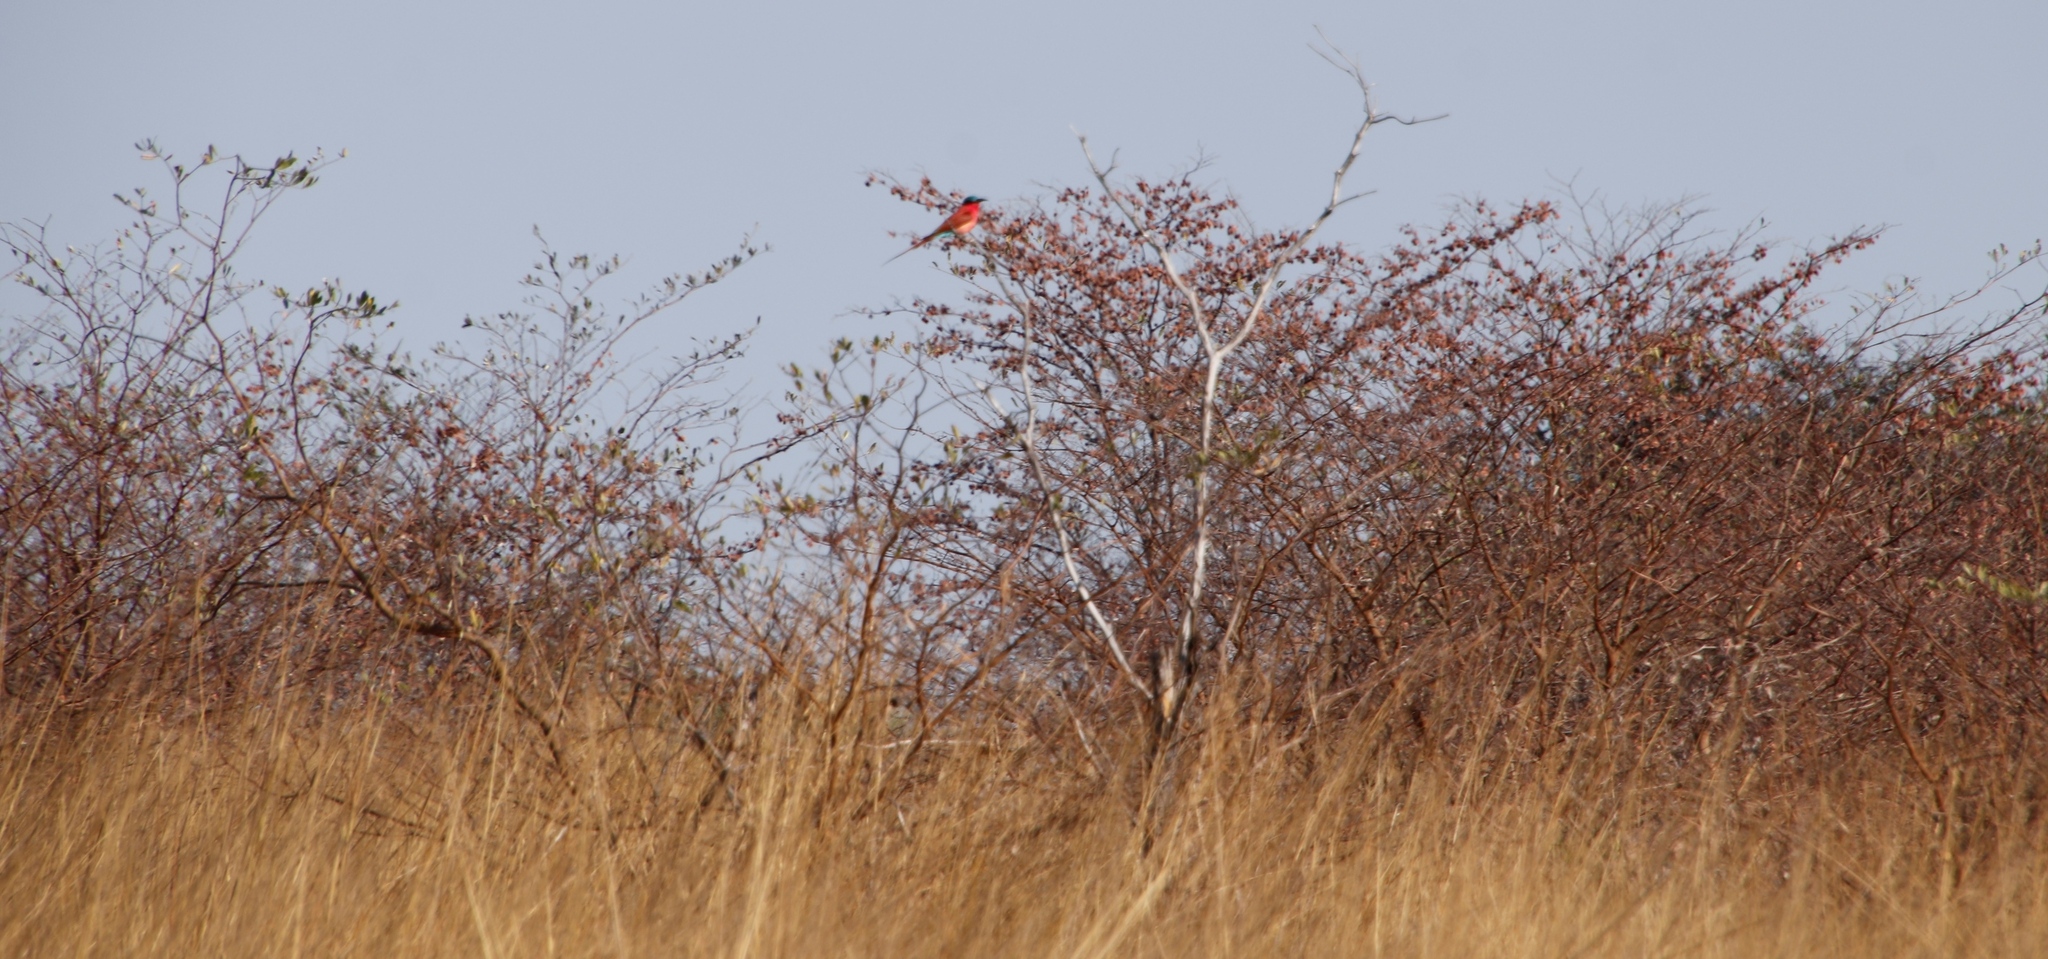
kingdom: Plantae
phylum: Tracheophyta
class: Magnoliopsida
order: Myrtales
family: Combretaceae
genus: Terminalia
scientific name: Terminalia sericea
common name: Clusterleaf
